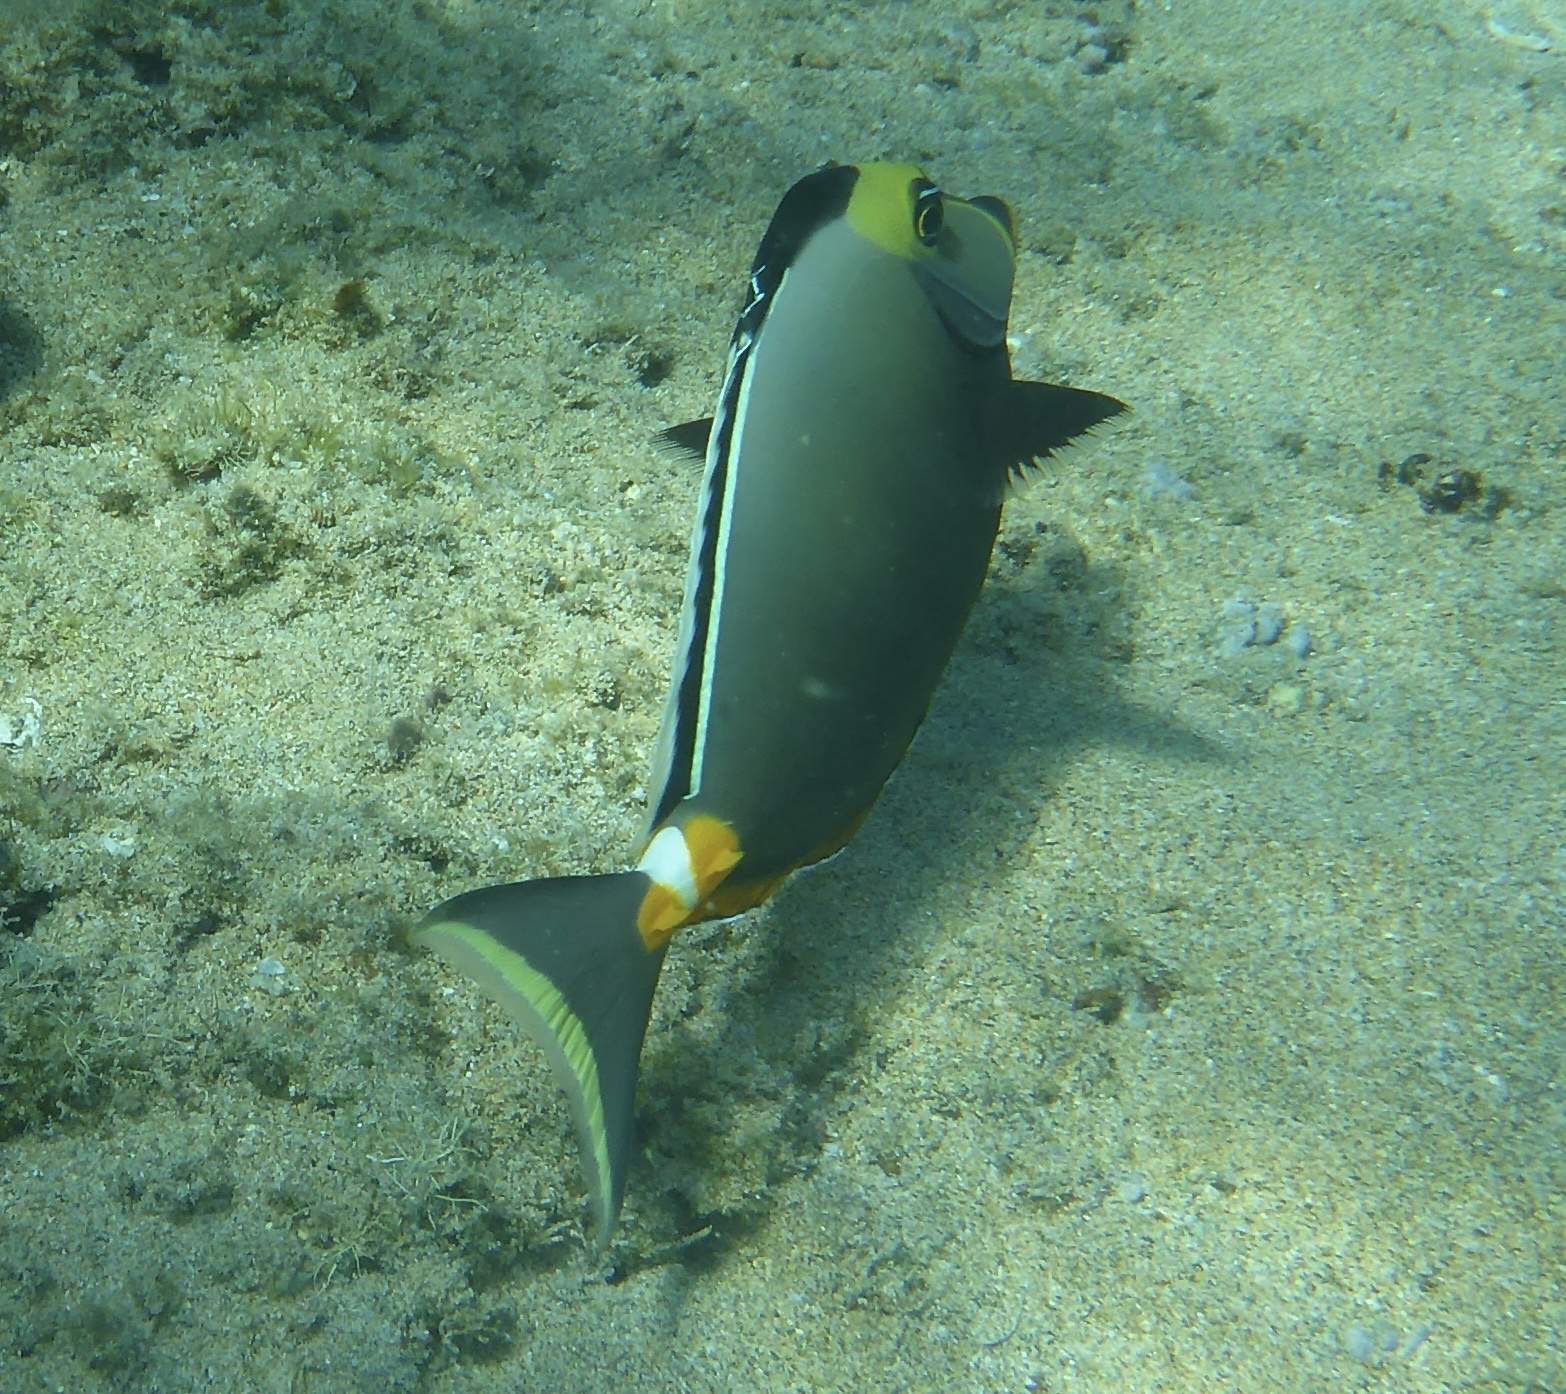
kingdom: Animalia
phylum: Chordata
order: Perciformes
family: Acanthuridae
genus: Naso
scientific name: Naso lituratus
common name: Orangespine unicornfish
